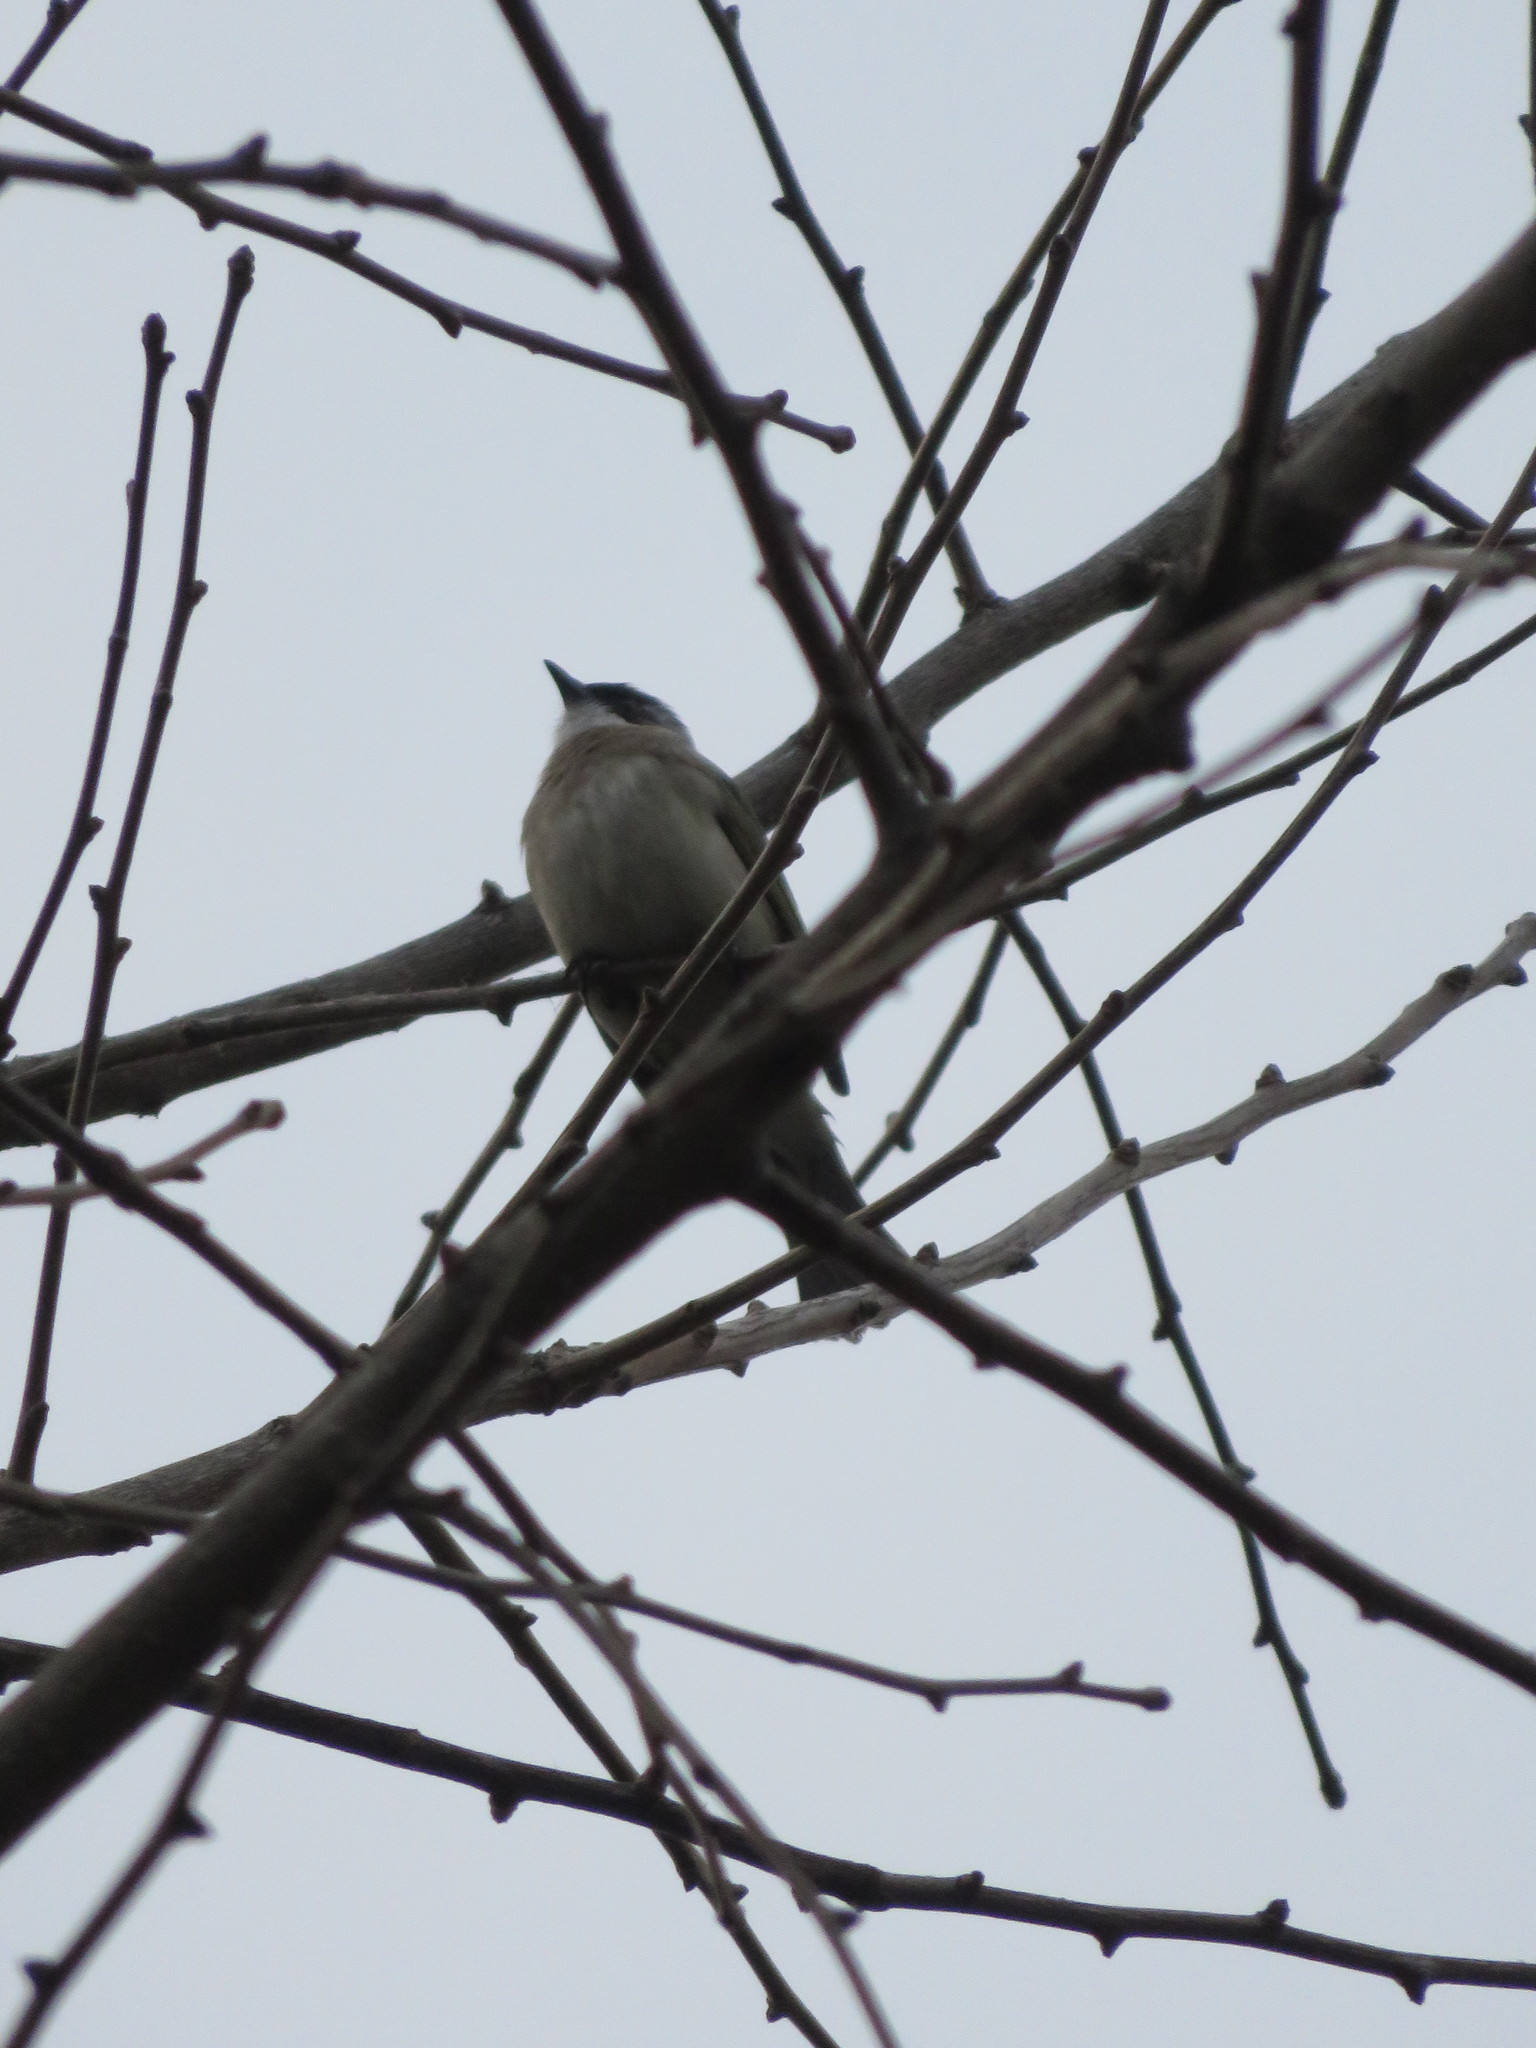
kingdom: Animalia
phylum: Chordata
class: Aves
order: Passeriformes
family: Pycnonotidae
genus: Pycnonotus
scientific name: Pycnonotus sinensis
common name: Light-vented bulbul
